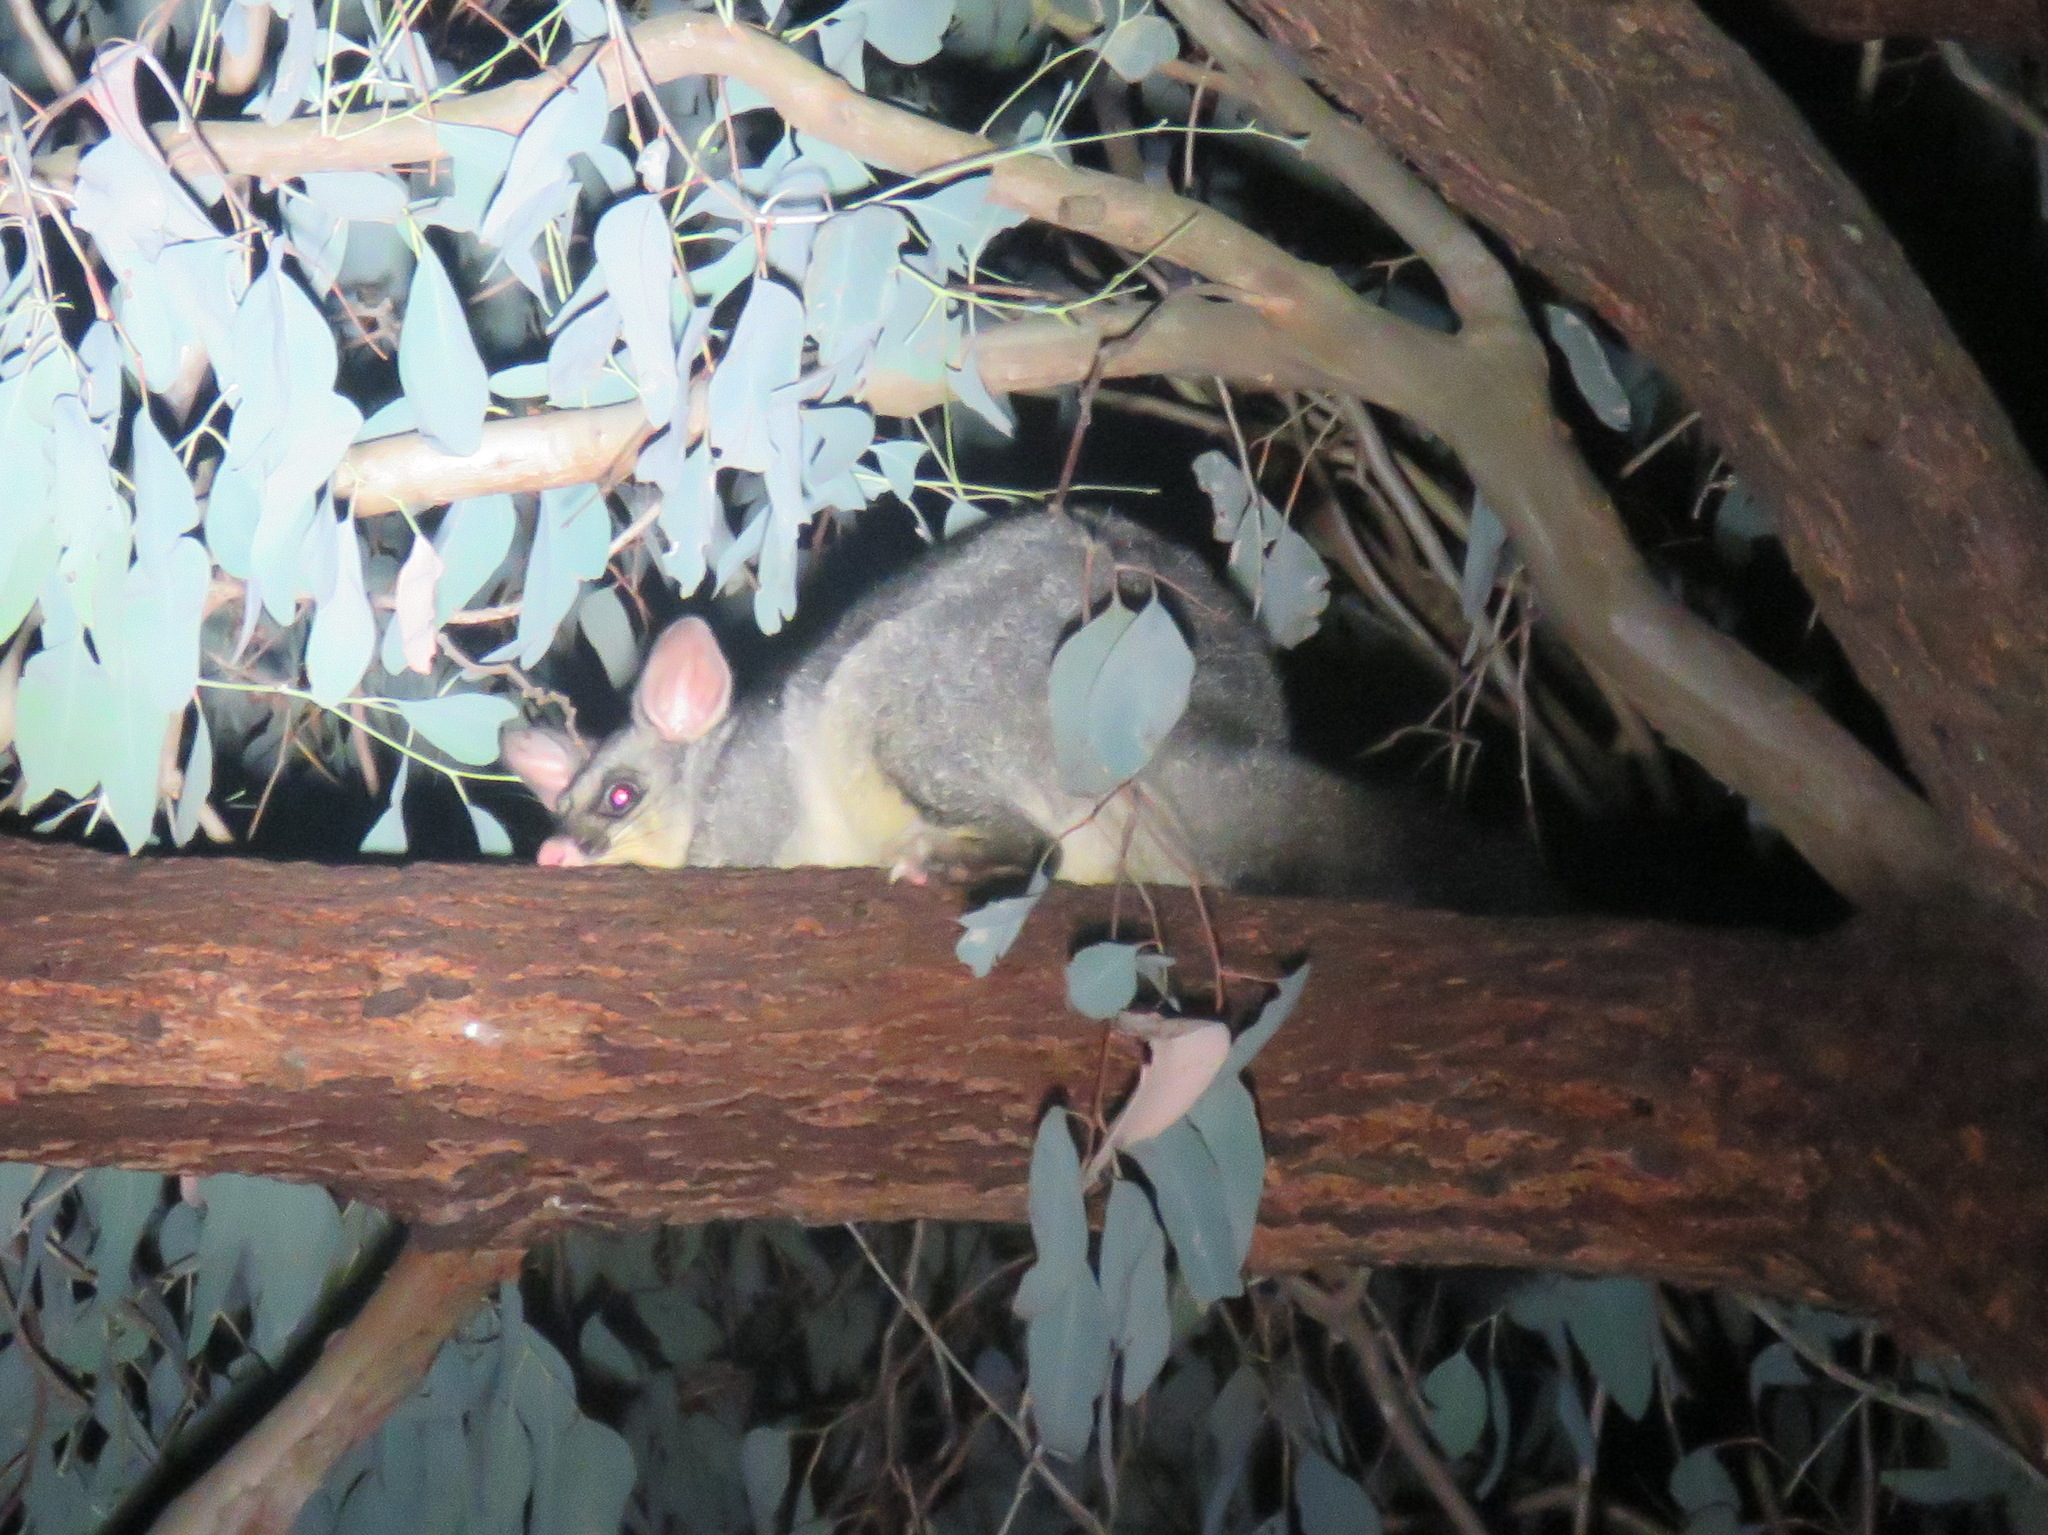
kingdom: Animalia
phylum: Chordata
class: Mammalia
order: Diprotodontia
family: Phalangeridae
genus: Trichosurus
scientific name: Trichosurus vulpecula
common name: Common brushtail
